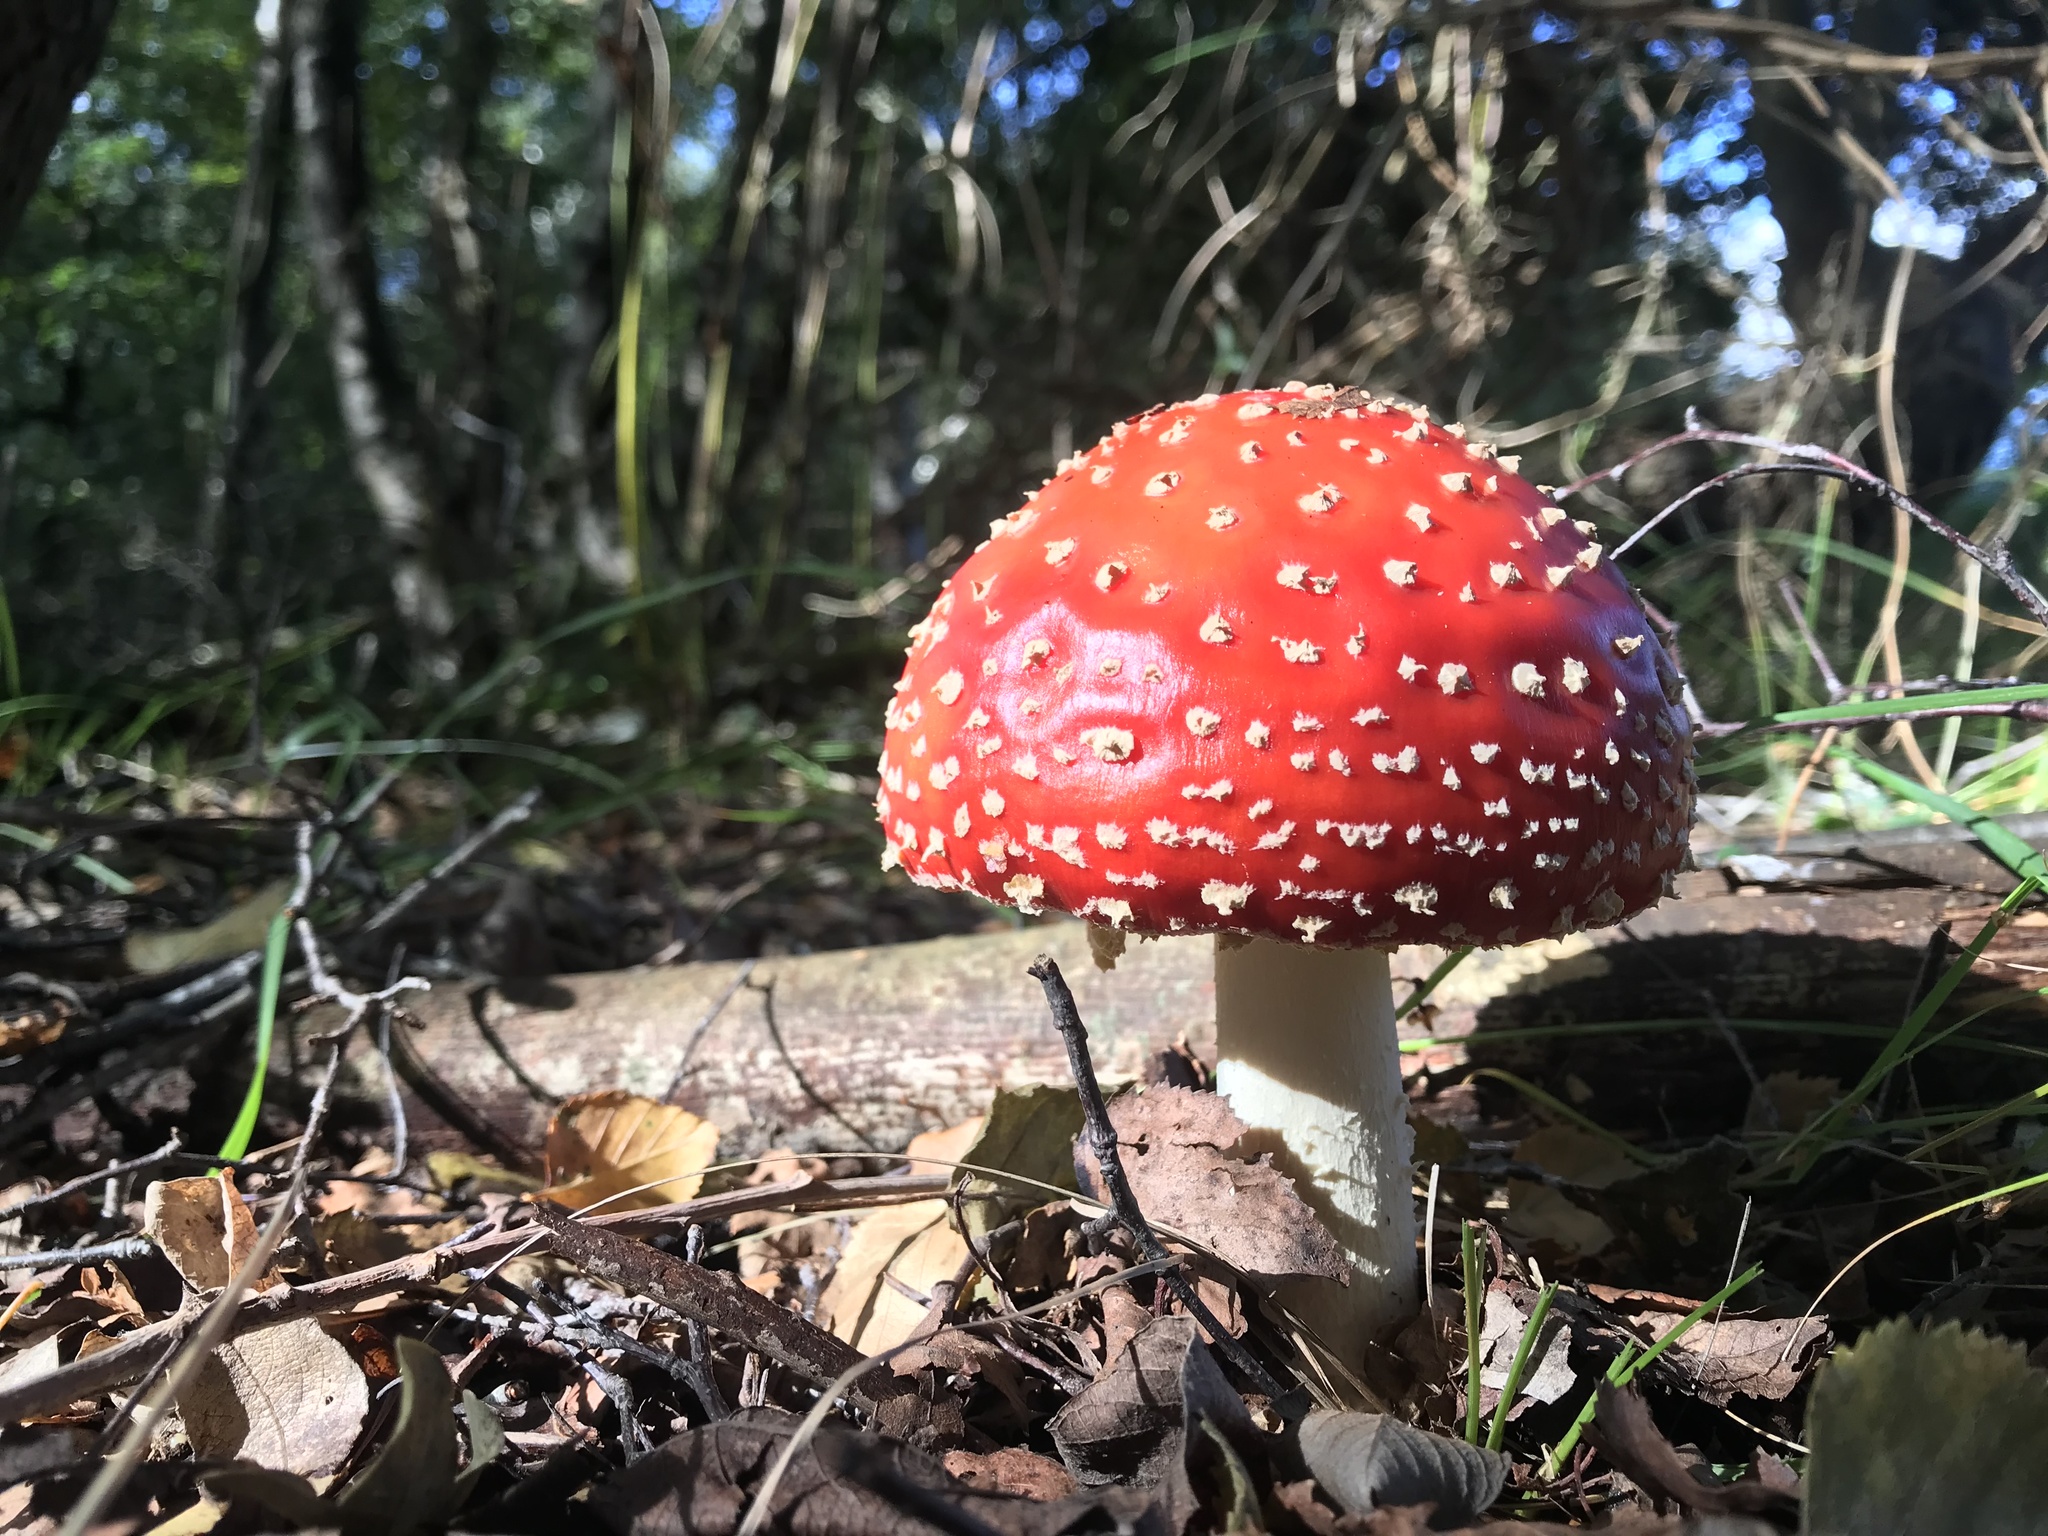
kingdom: Fungi
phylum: Basidiomycota
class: Agaricomycetes
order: Agaricales
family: Amanitaceae
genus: Amanita
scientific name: Amanita muscaria
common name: Fly agaric
